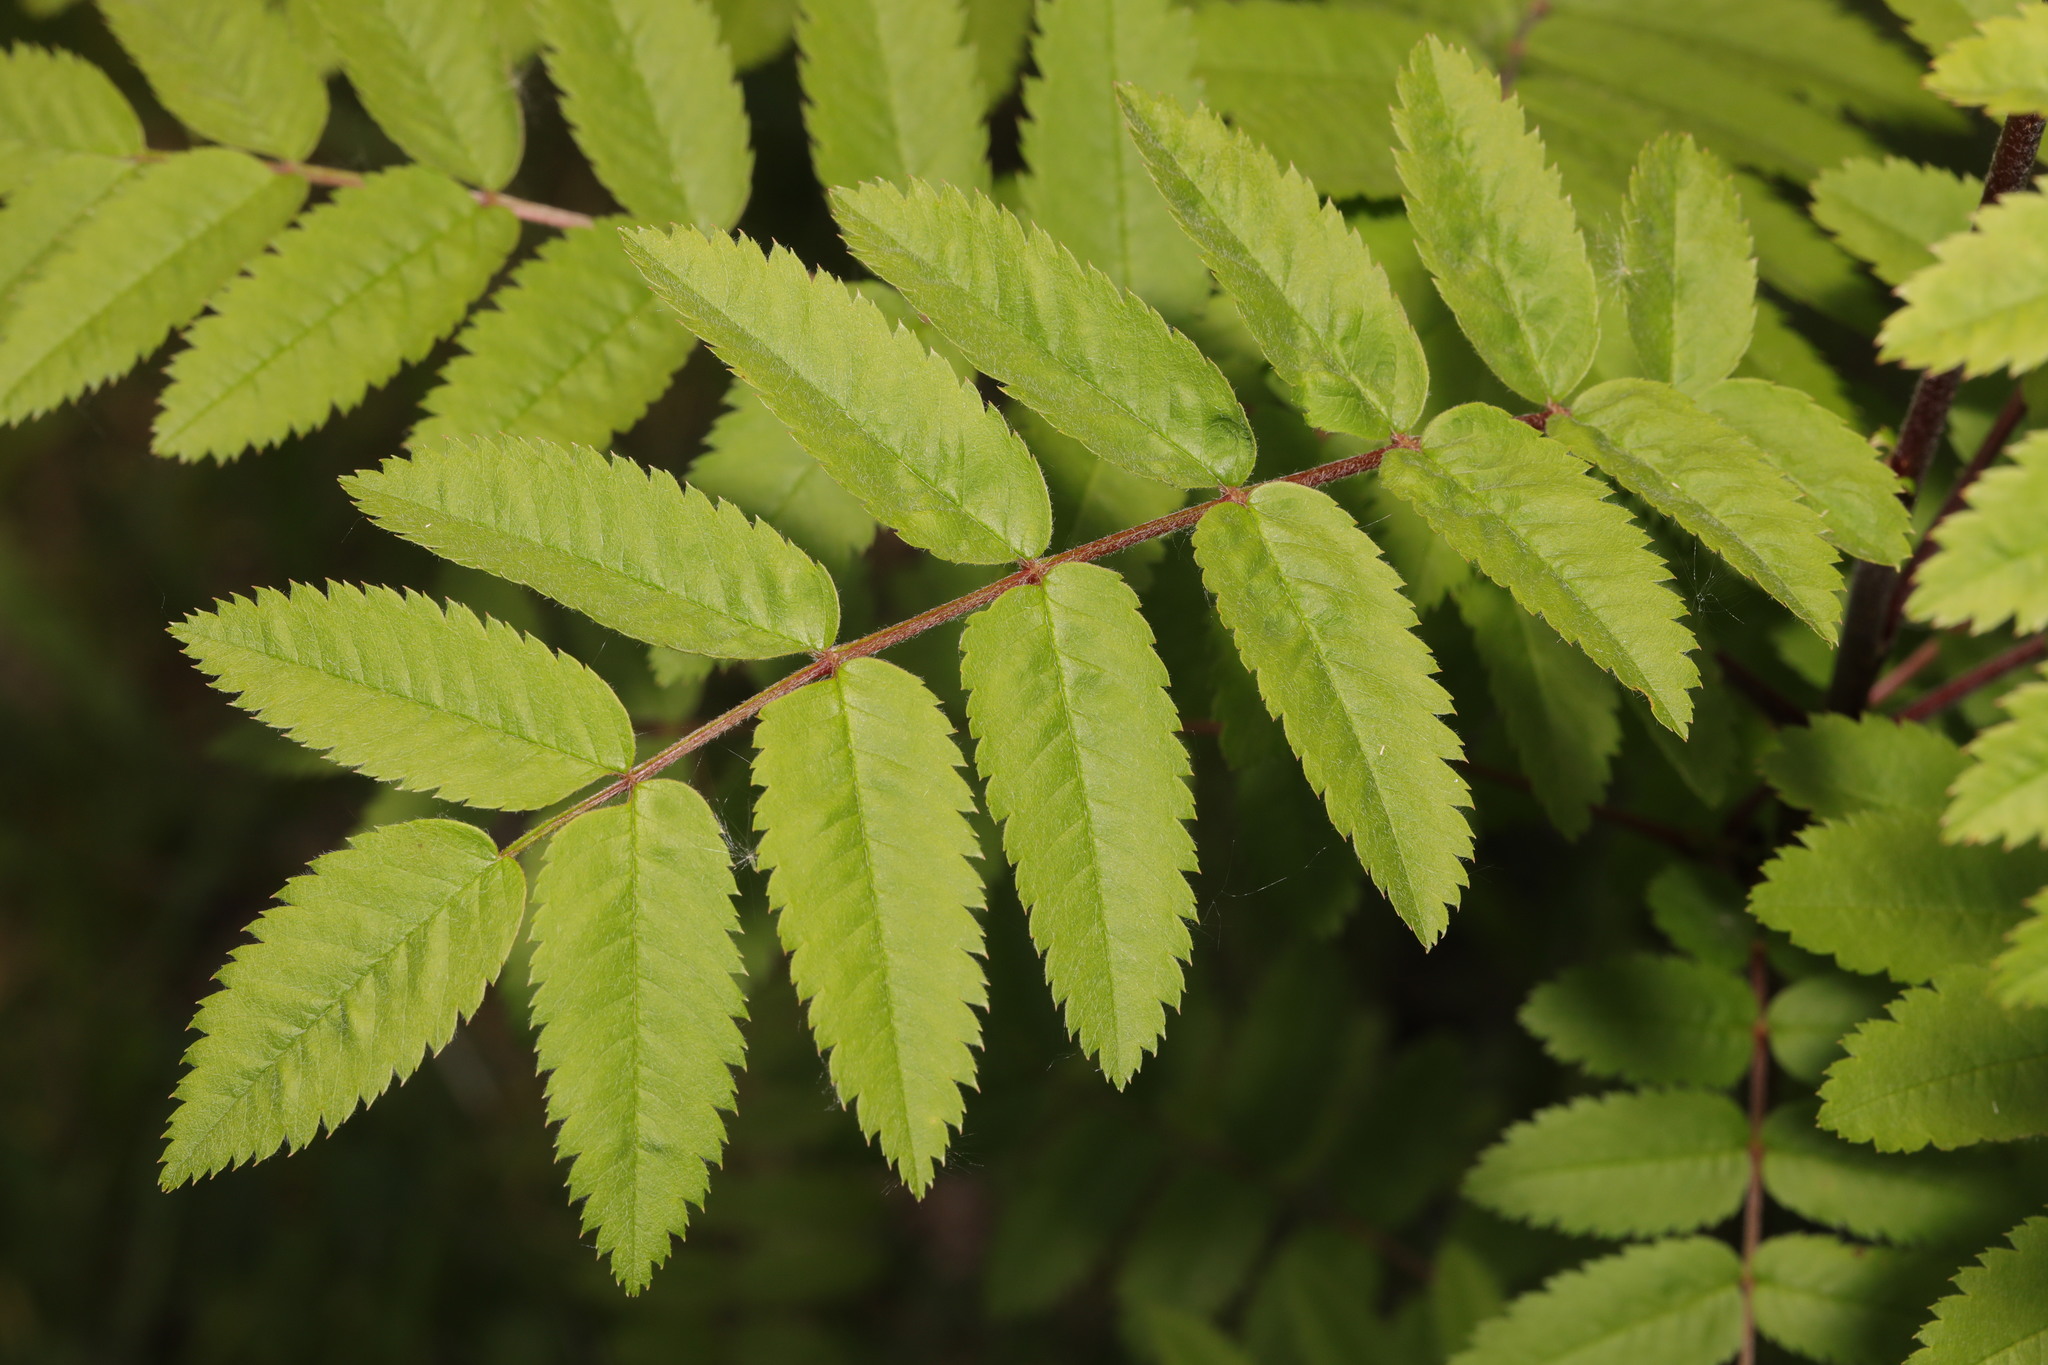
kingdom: Plantae
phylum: Tracheophyta
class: Magnoliopsida
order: Rosales
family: Rosaceae
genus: Sorbus
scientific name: Sorbus aucuparia
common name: Rowan
